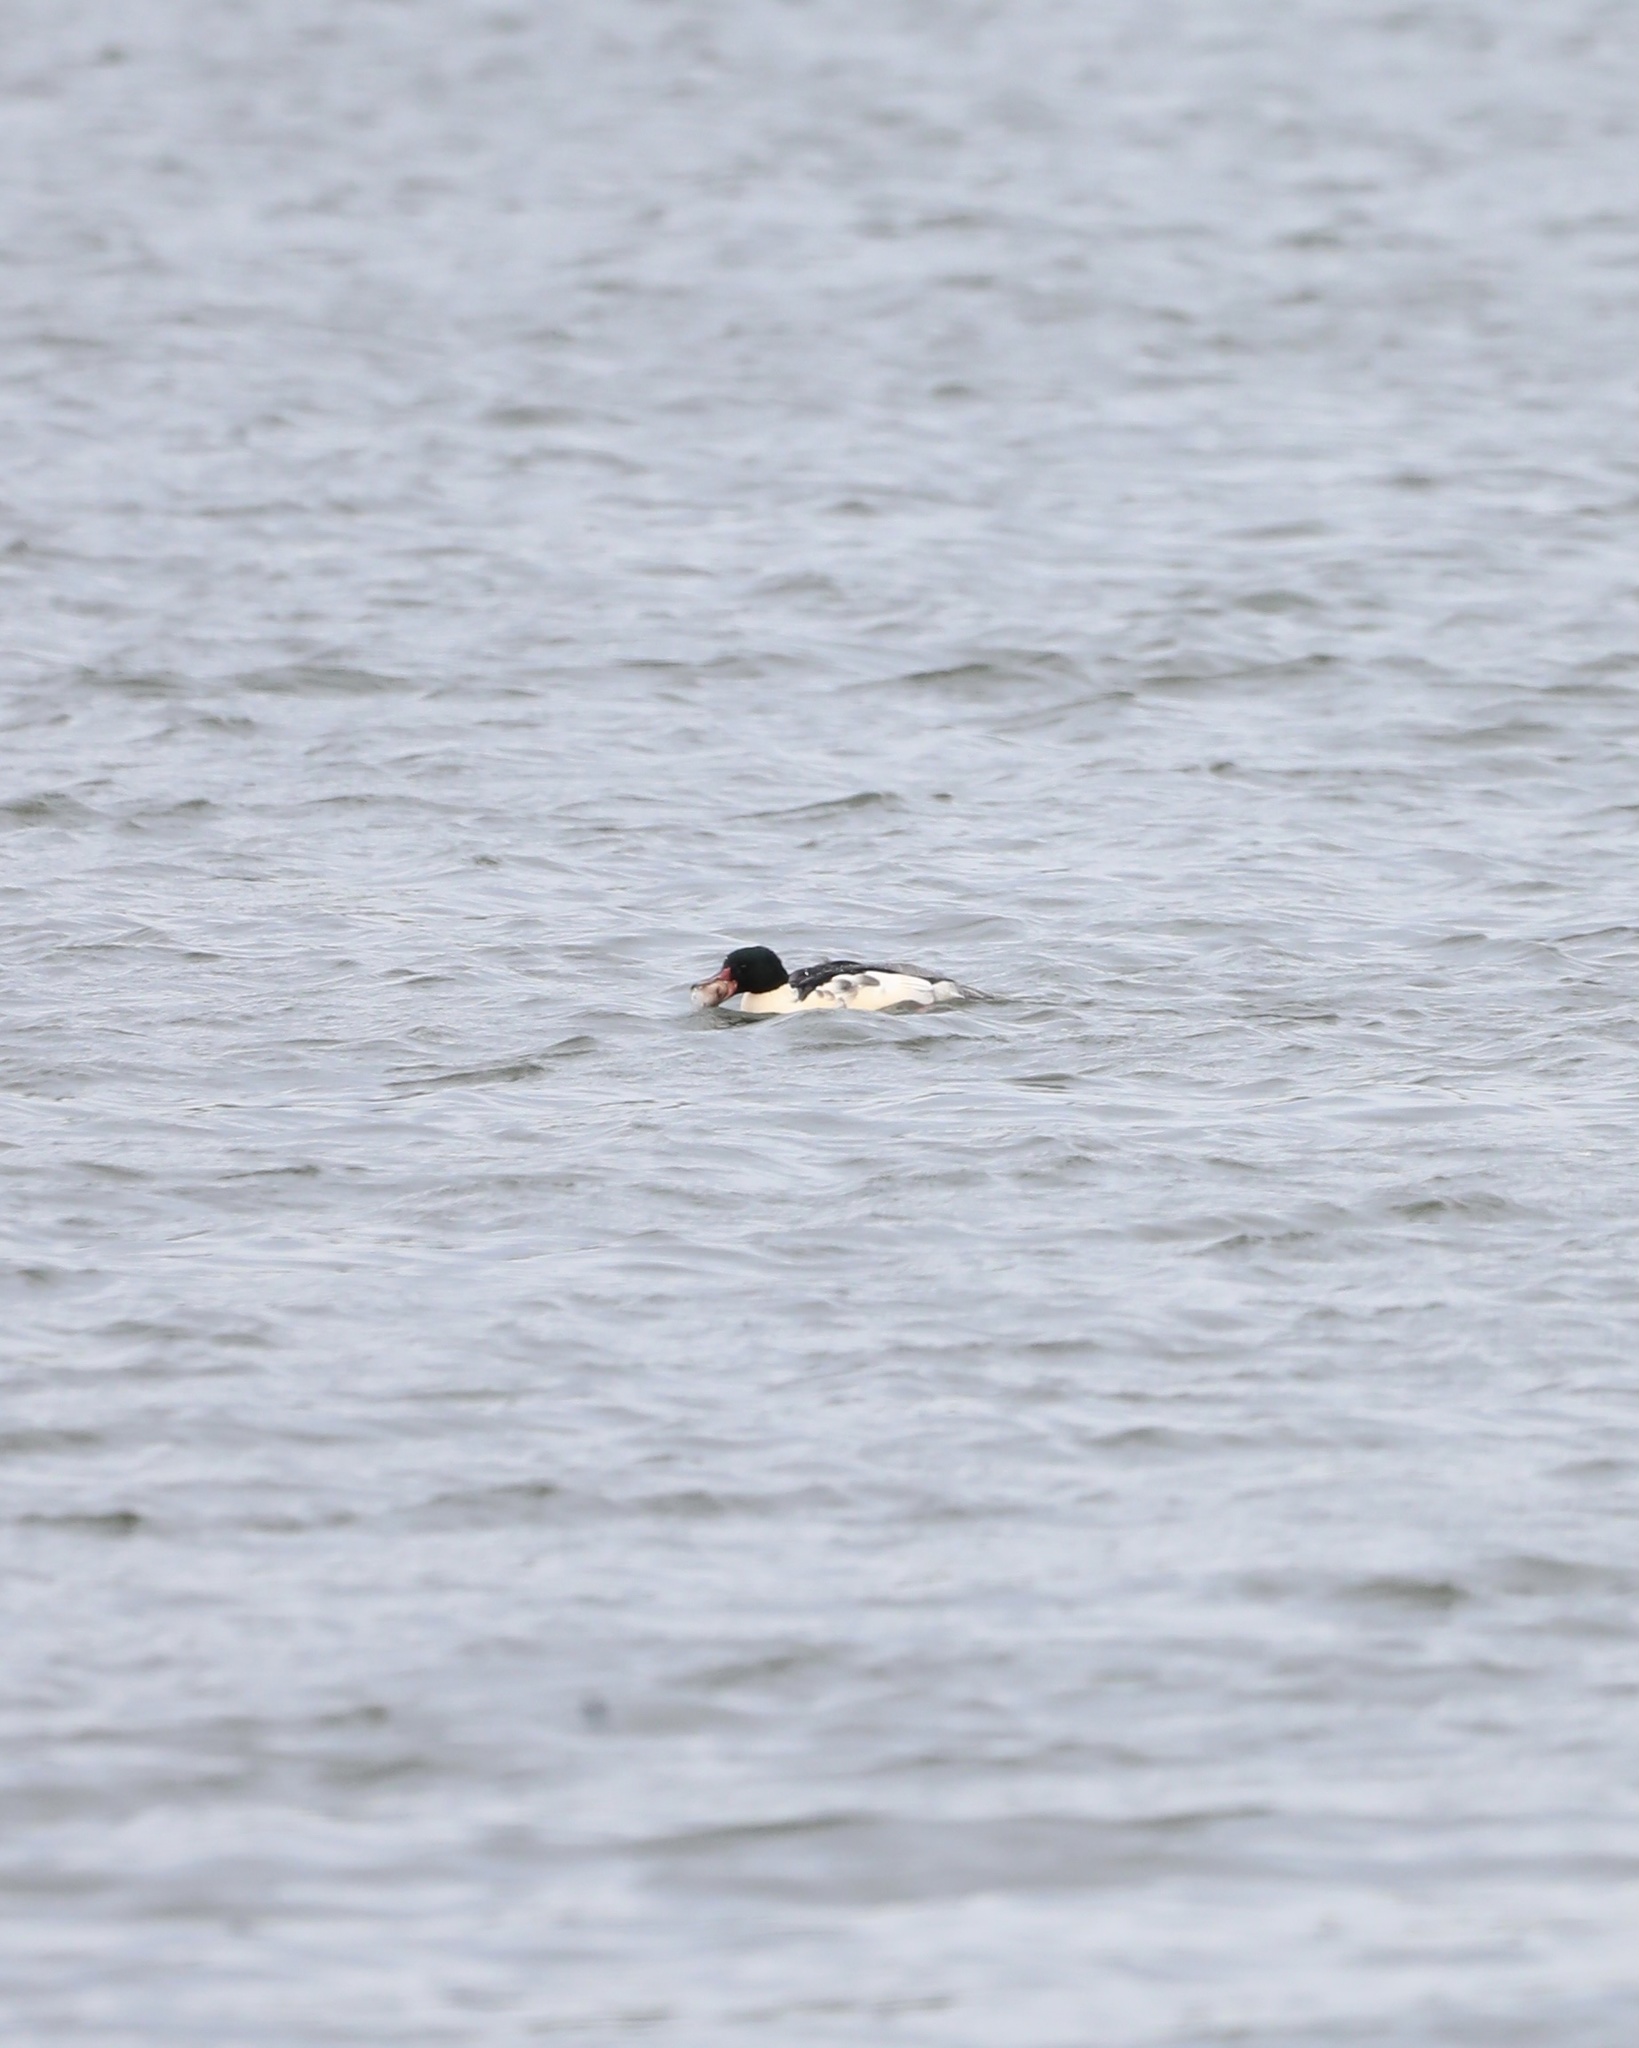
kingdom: Animalia
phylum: Chordata
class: Aves
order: Anseriformes
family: Anatidae
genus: Mergus
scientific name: Mergus merganser
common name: Common merganser
